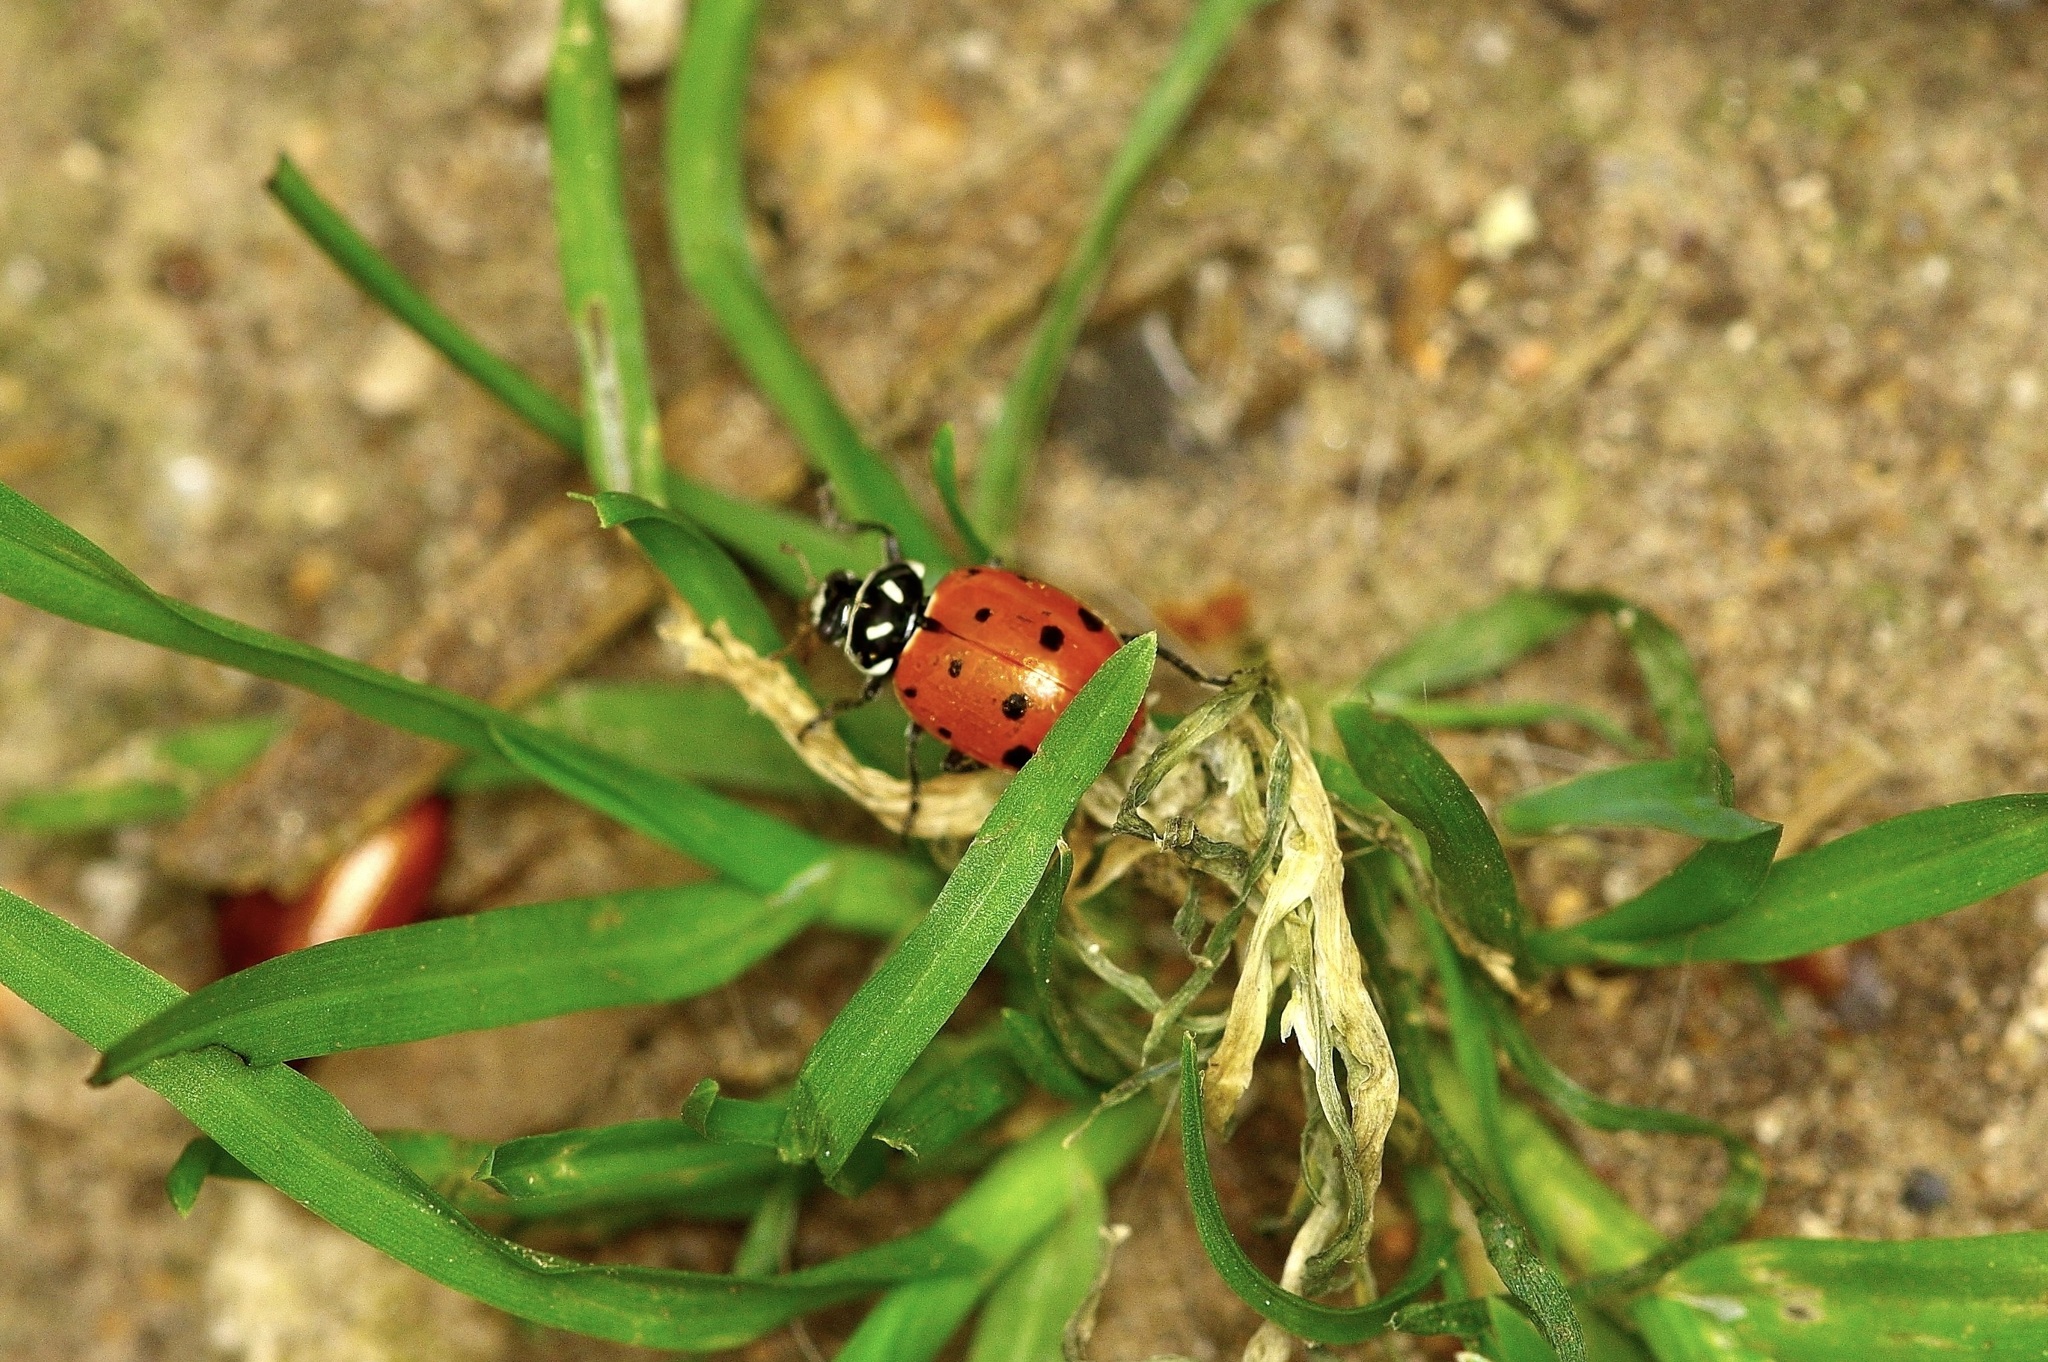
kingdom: Animalia
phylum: Arthropoda
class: Insecta
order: Coleoptera
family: Coccinellidae
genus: Hippodamia
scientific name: Hippodamia convergens
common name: Convergent lady beetle
